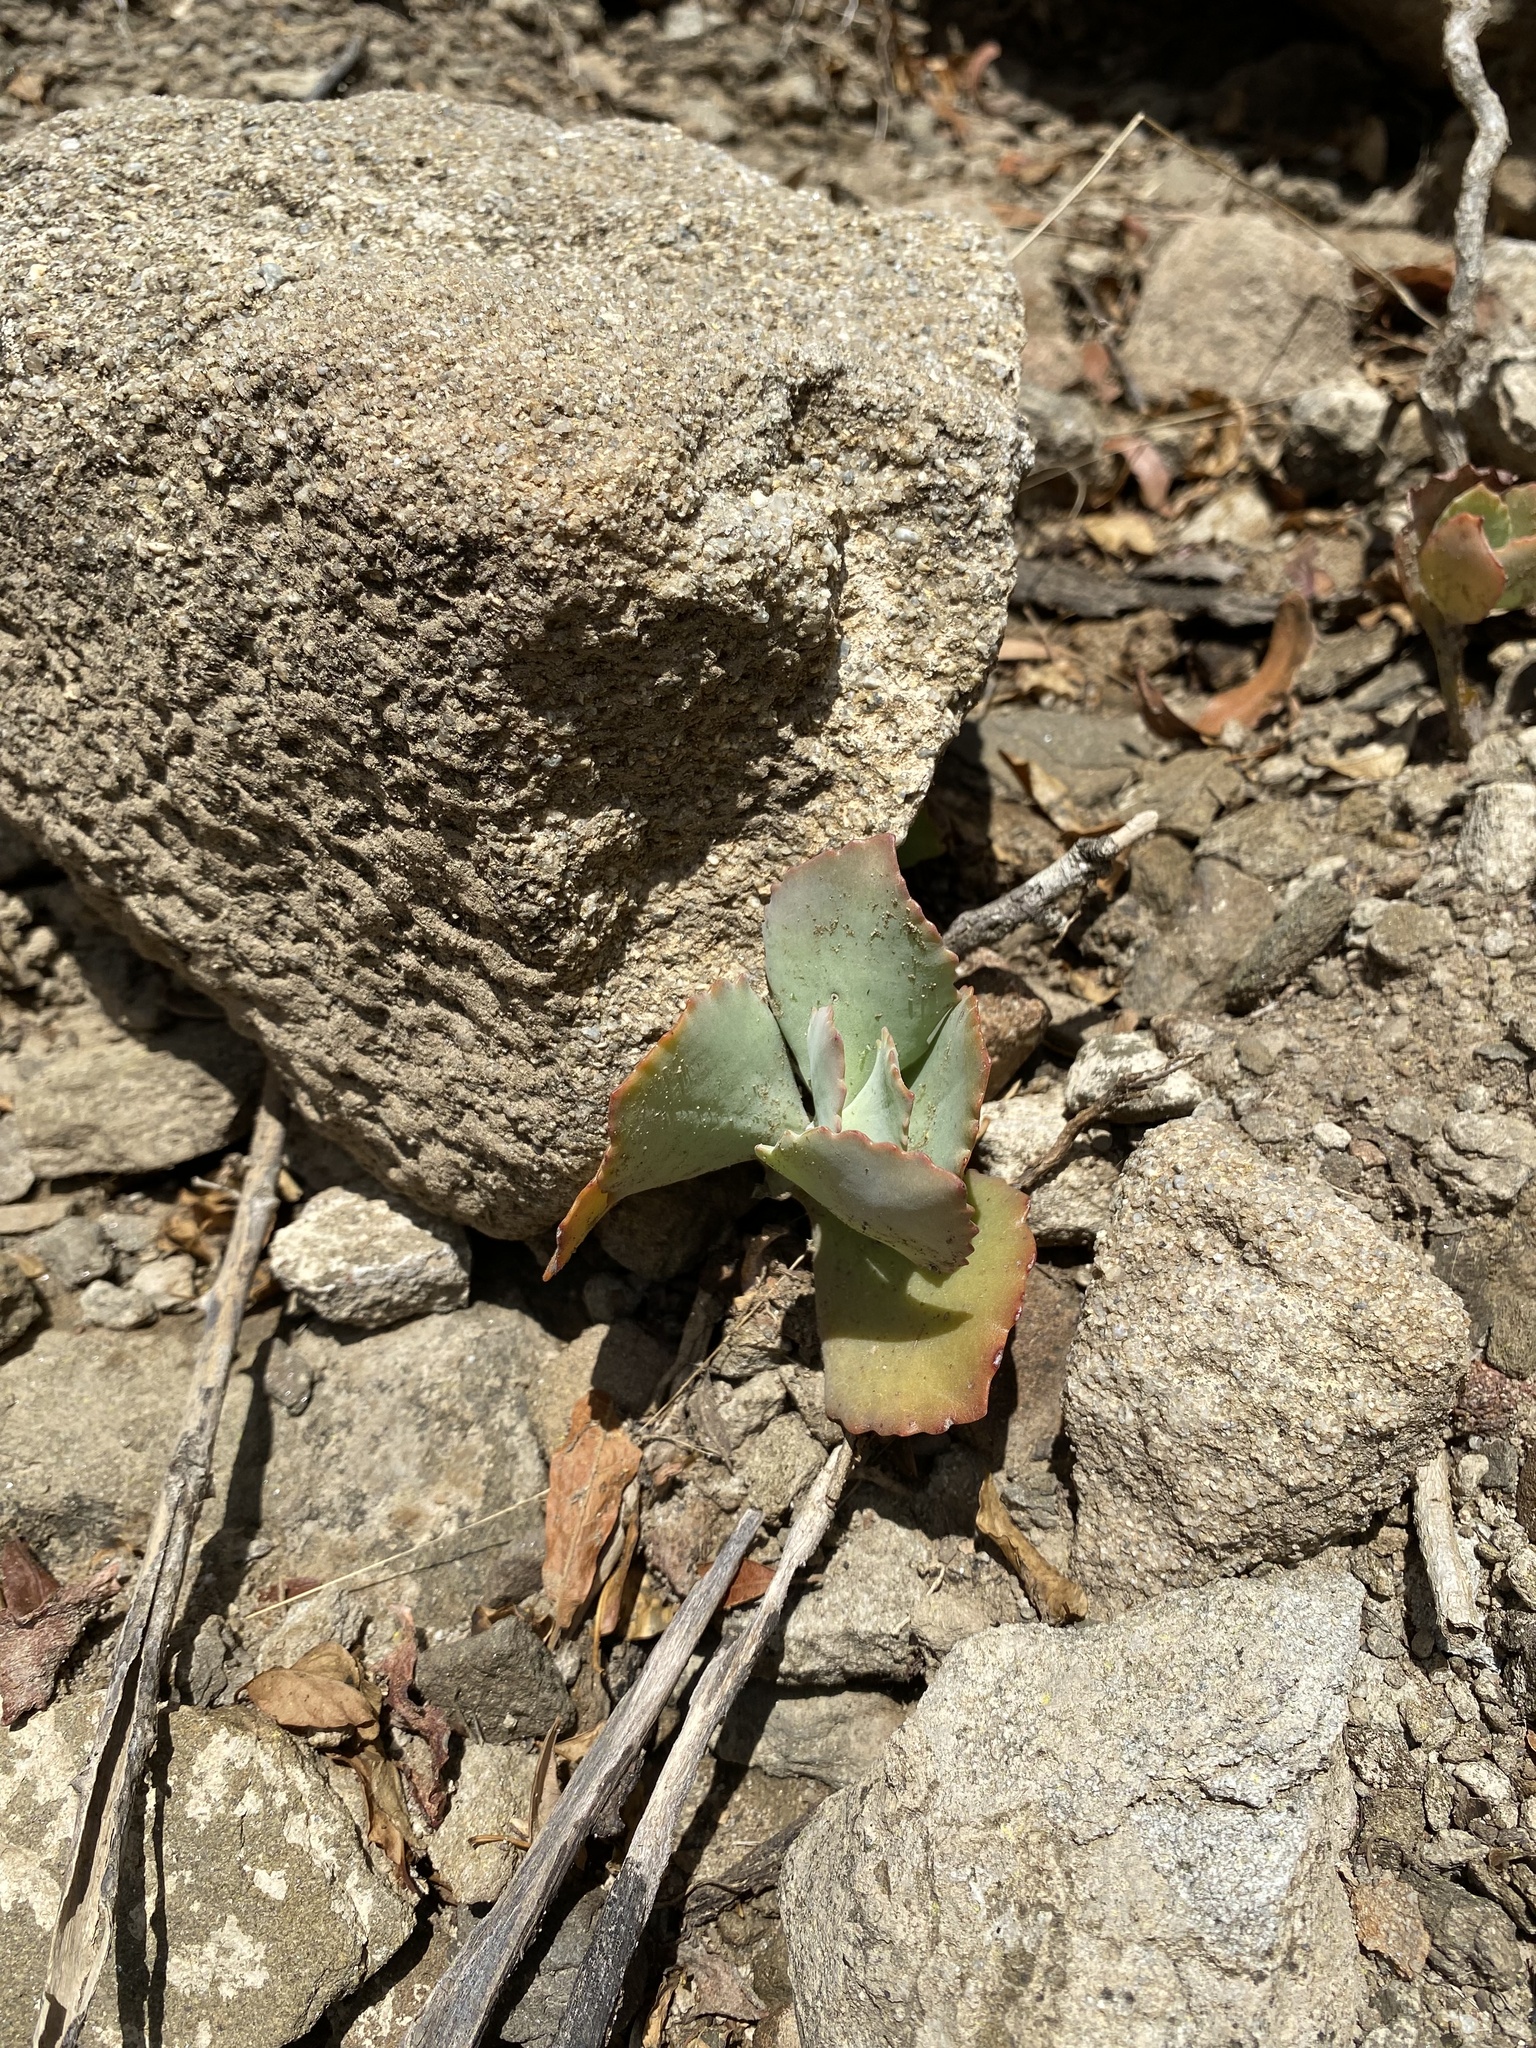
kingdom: Plantae
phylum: Tracheophyta
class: Magnoliopsida
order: Saxifragales
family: Crassulaceae
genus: Kalanchoe
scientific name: Kalanchoe longiflora
